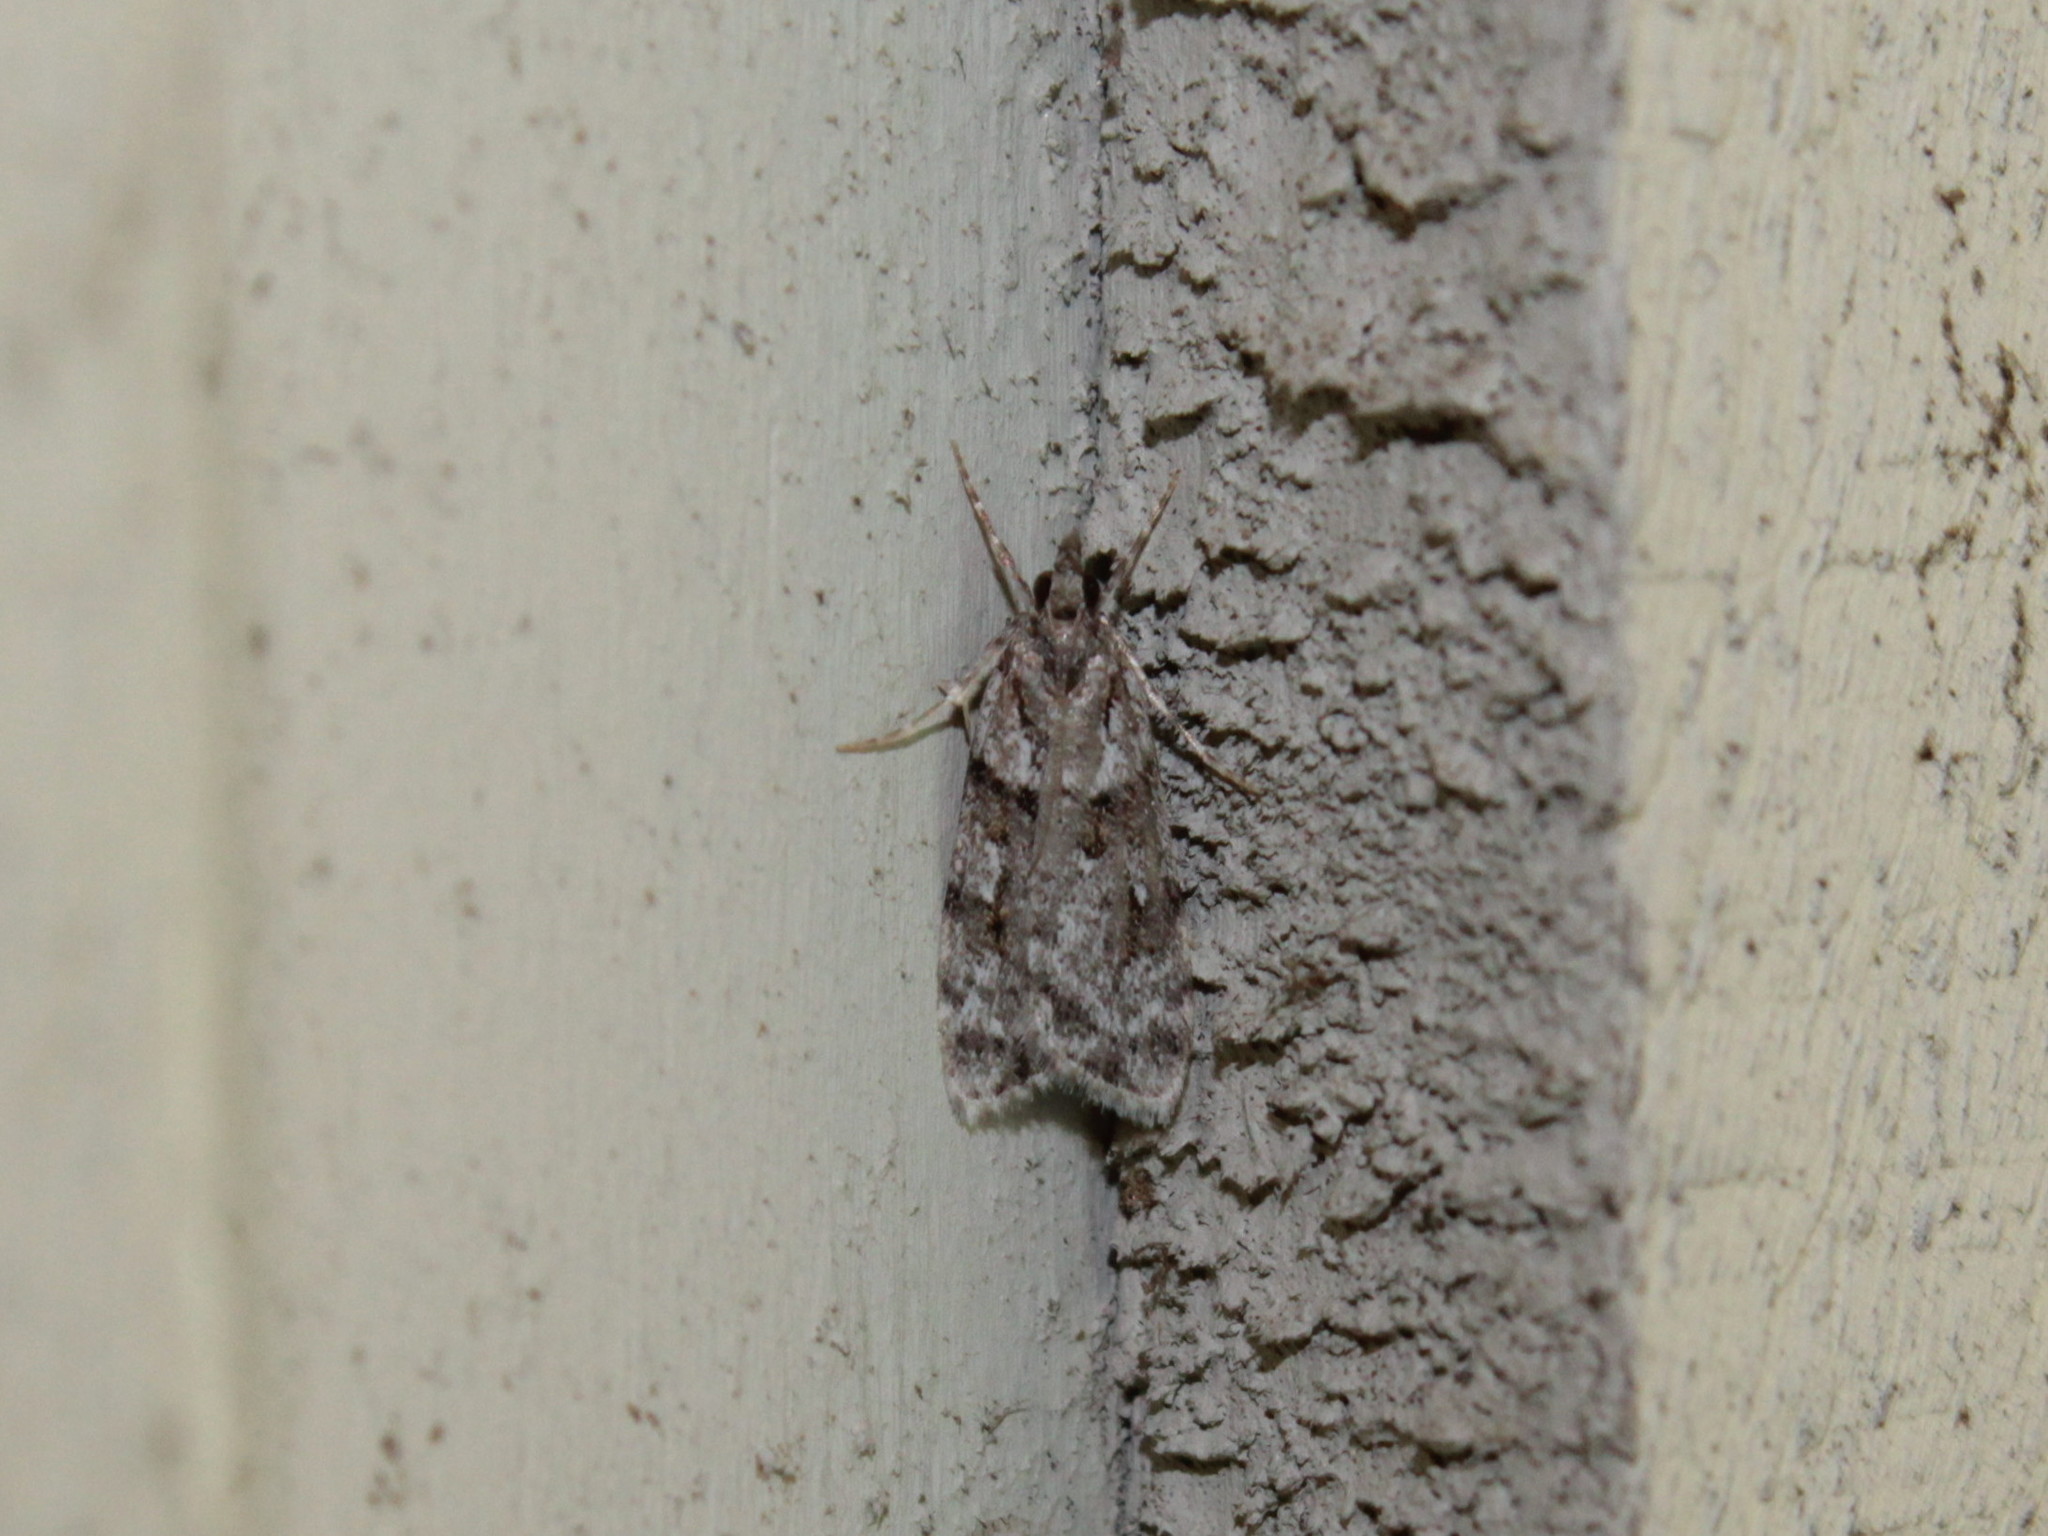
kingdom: Animalia
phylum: Arthropoda
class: Insecta
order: Lepidoptera
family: Crambidae
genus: Scoparia
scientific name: Scoparia biplagialis
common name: Double-striped scoparia moth
